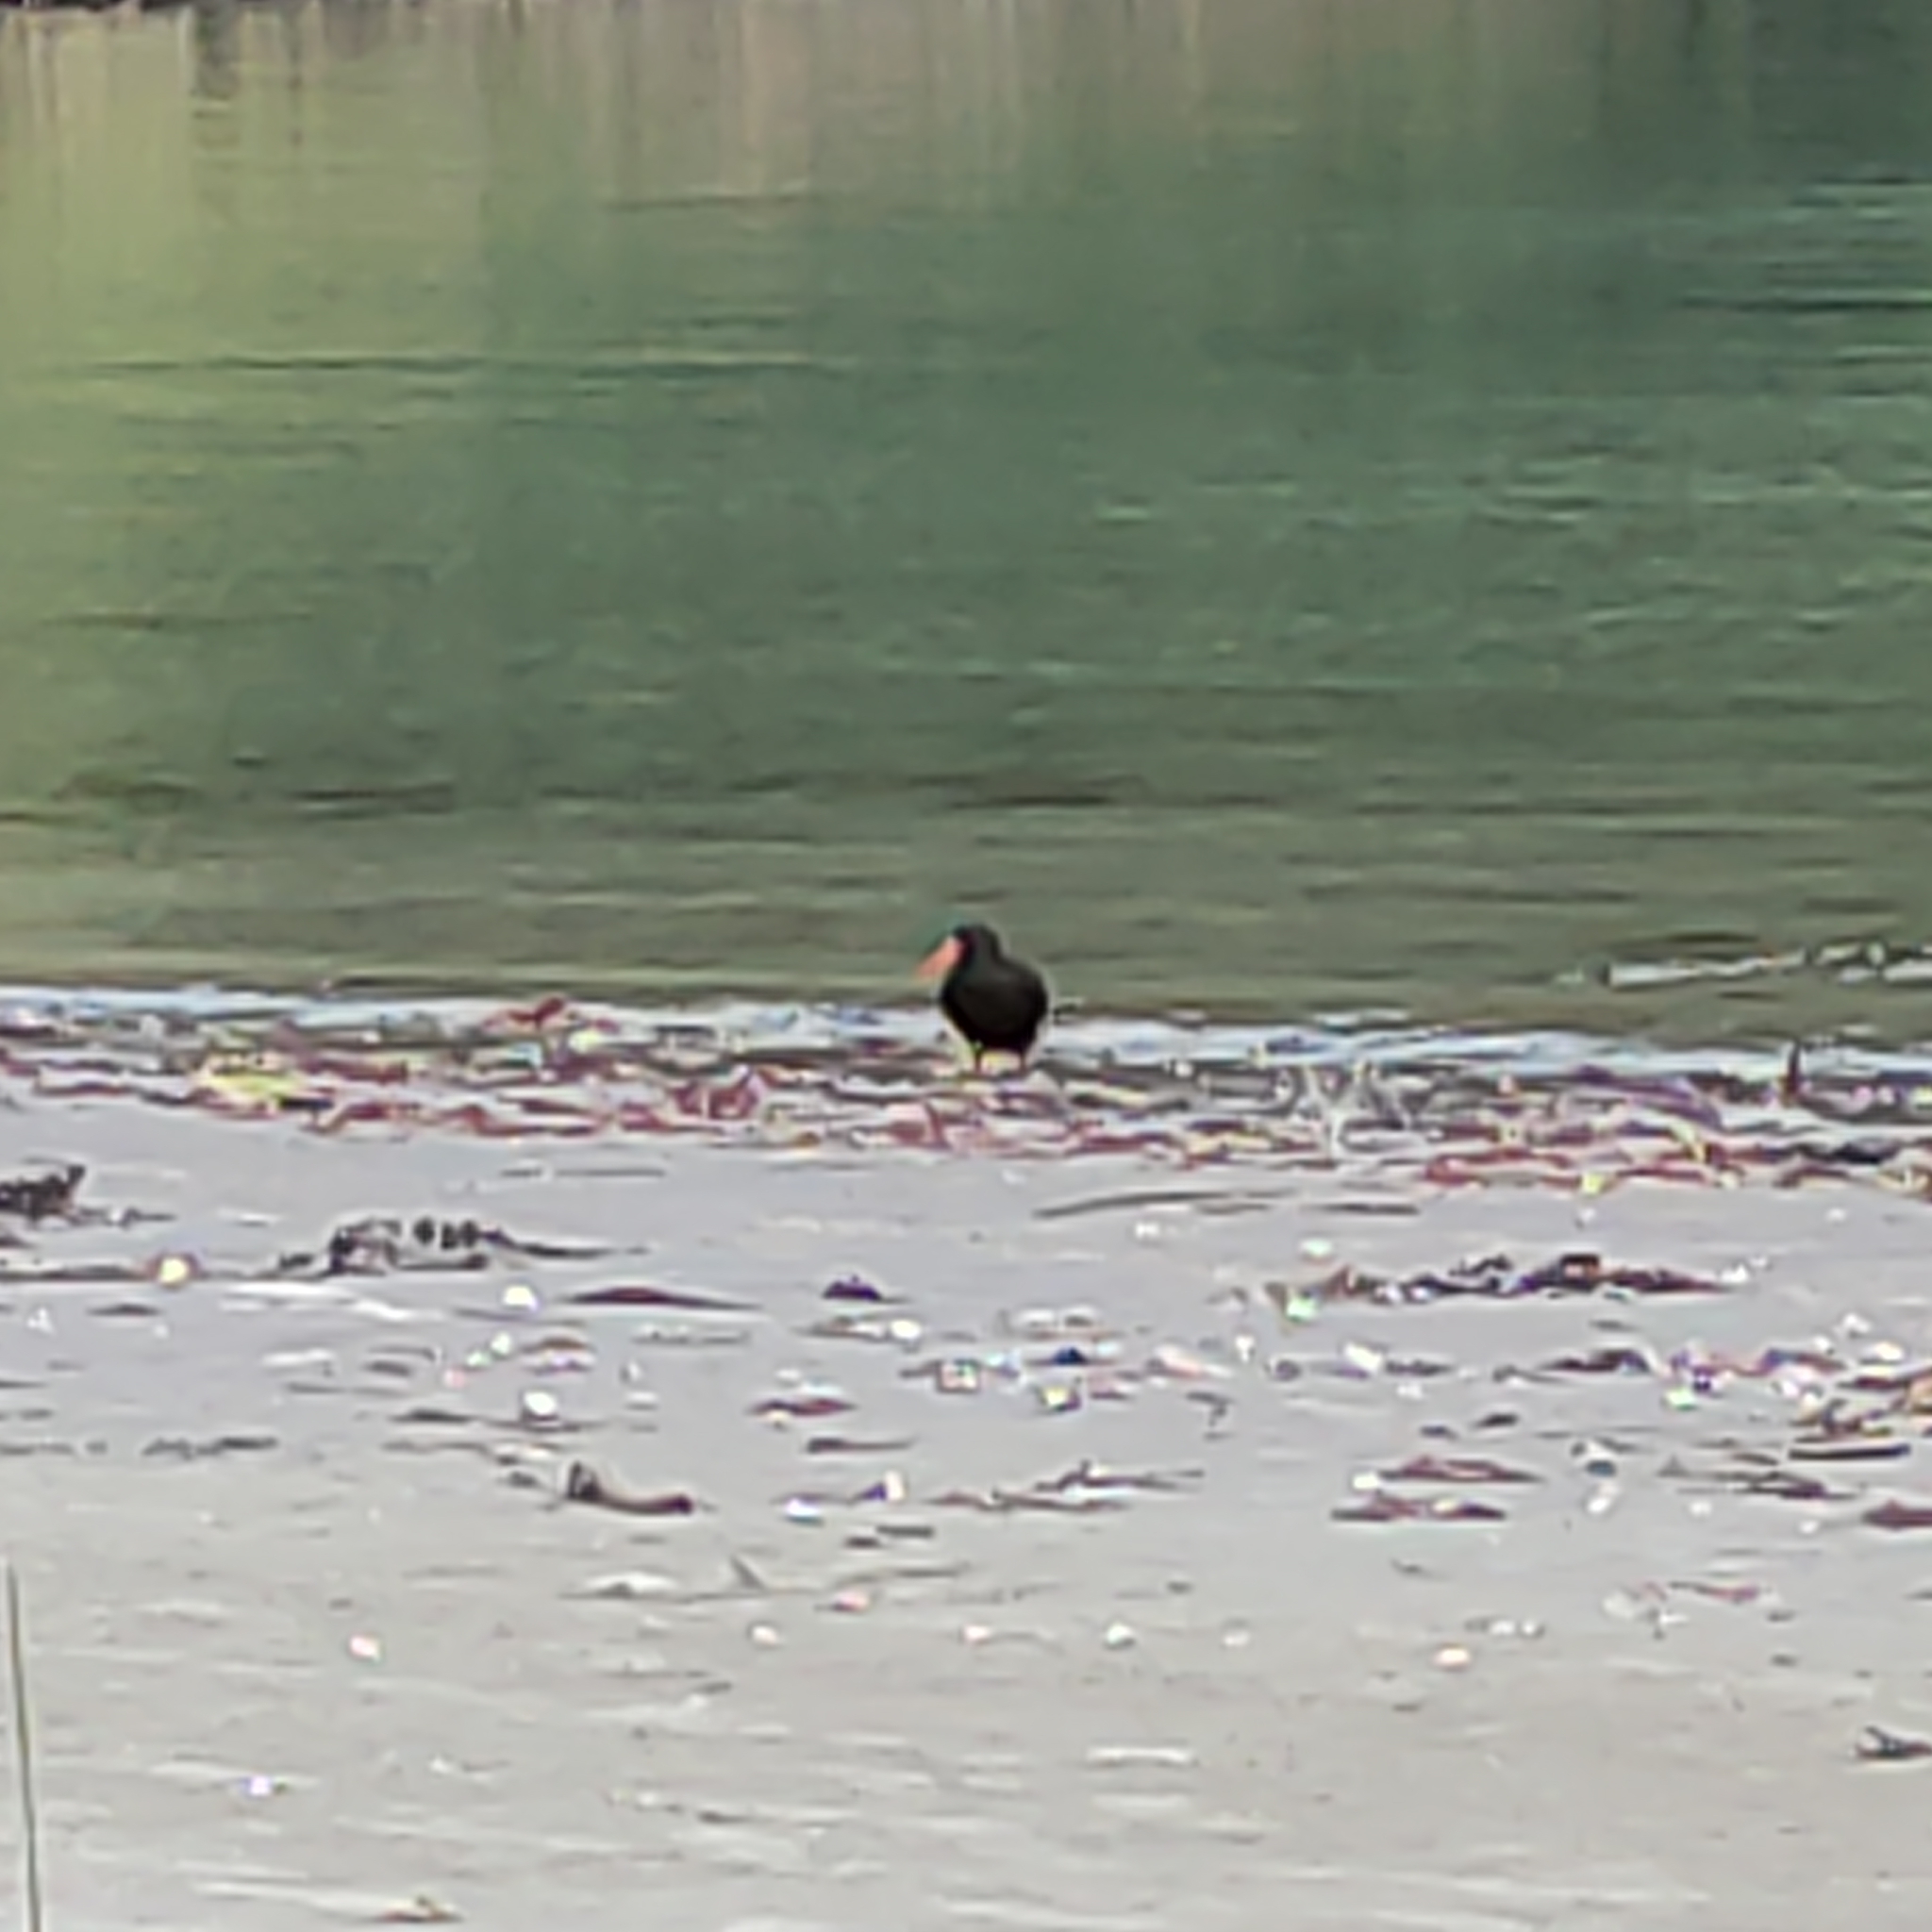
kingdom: Animalia
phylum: Chordata
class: Aves
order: Charadriiformes
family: Haematopodidae
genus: Haematopus
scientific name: Haematopus unicolor
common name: Variable oystercatcher
